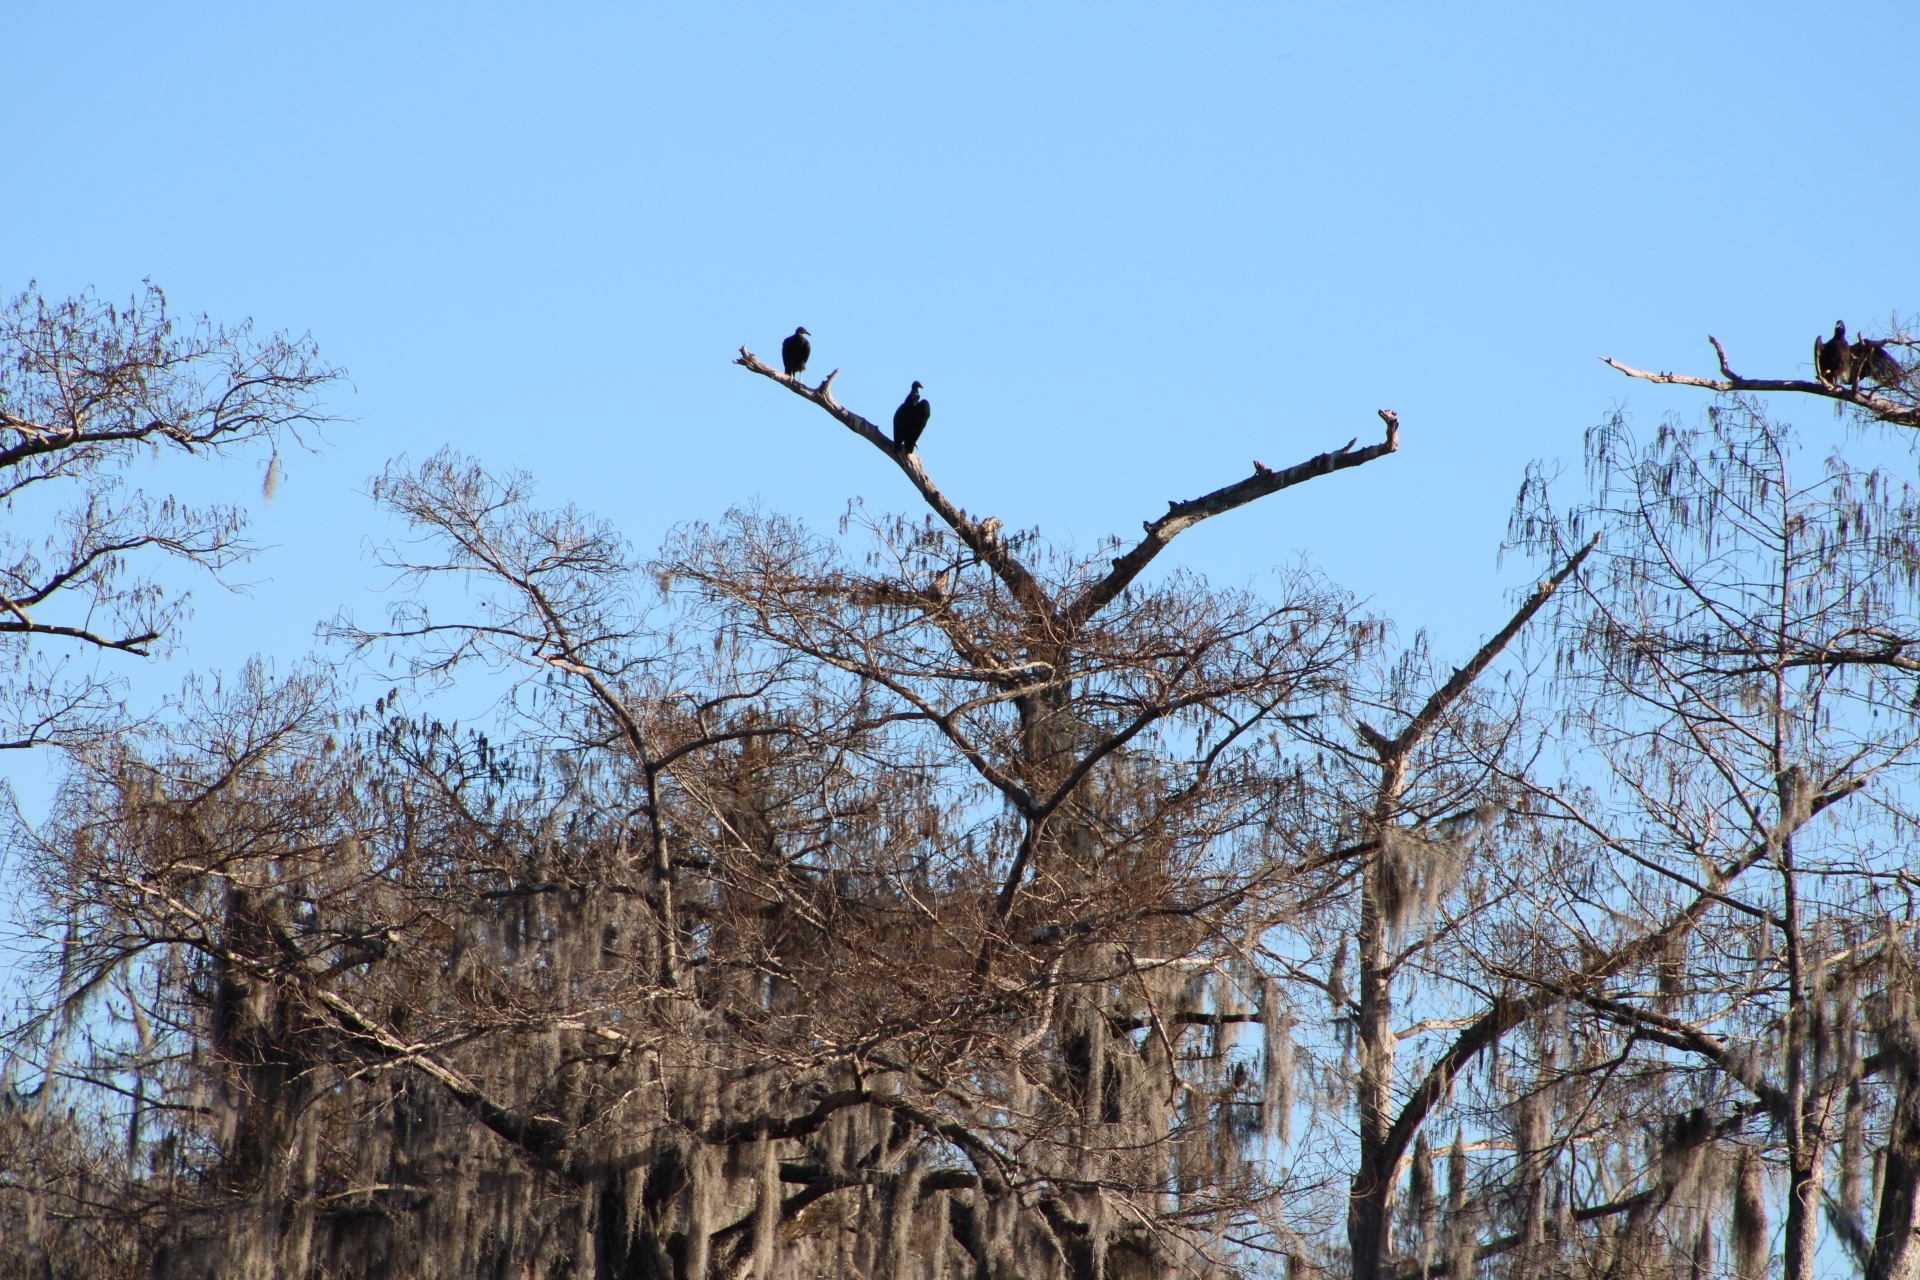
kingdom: Animalia
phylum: Chordata
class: Aves
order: Accipitriformes
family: Cathartidae
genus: Coragyps
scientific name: Coragyps atratus
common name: Black vulture
